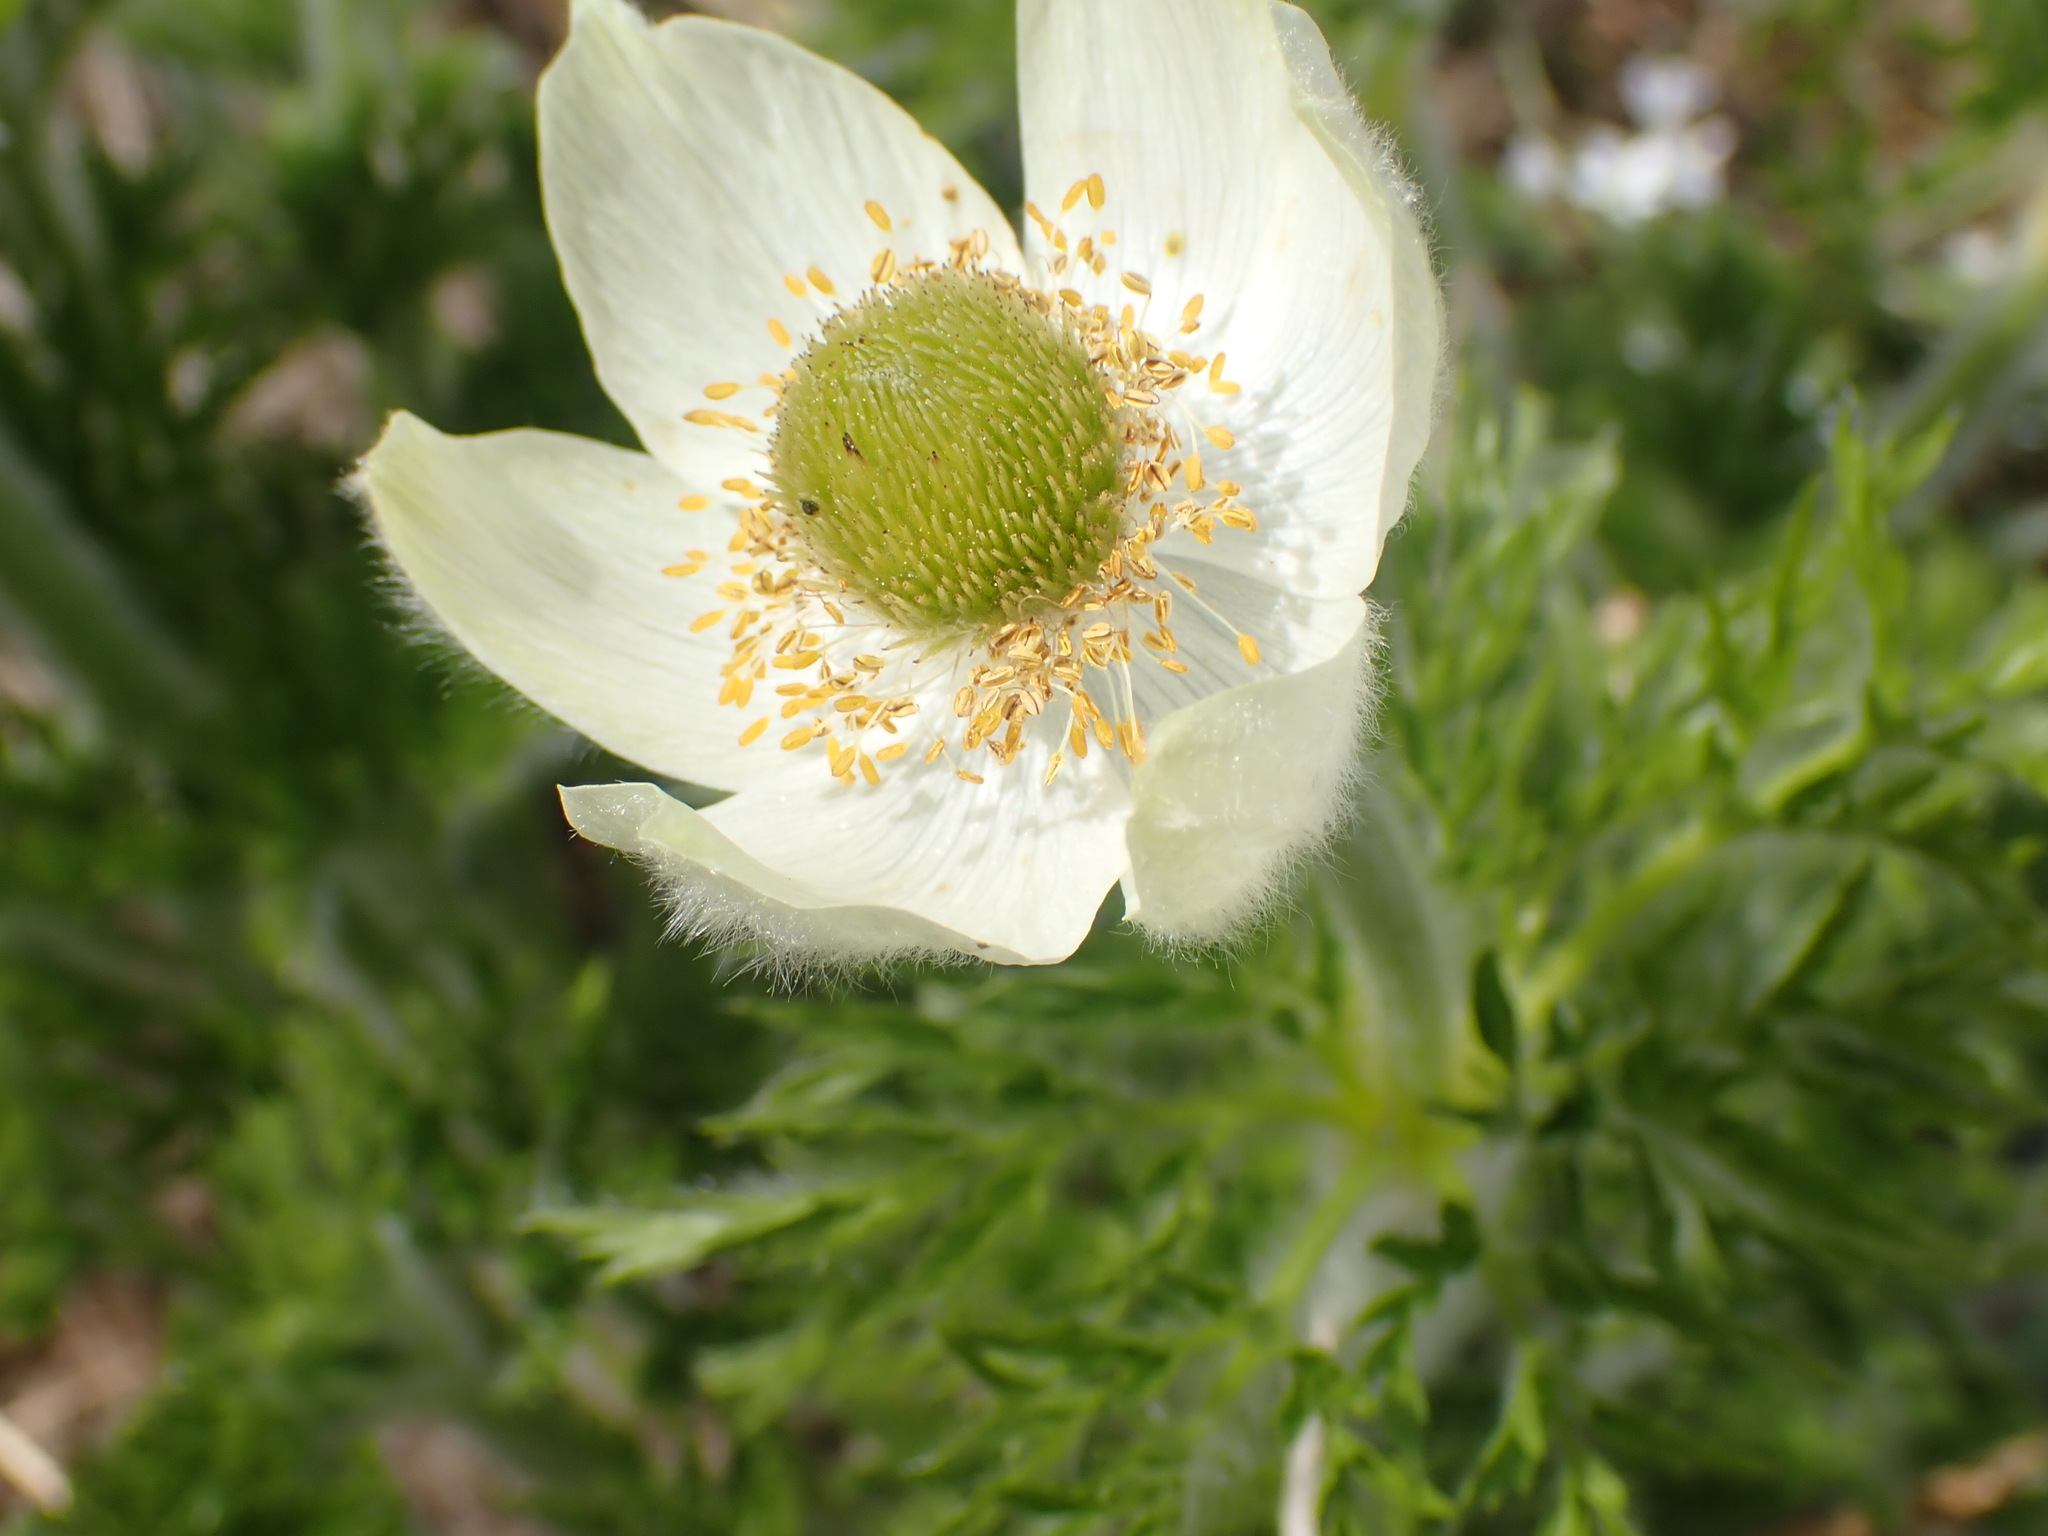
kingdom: Plantae
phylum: Tracheophyta
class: Magnoliopsida
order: Ranunculales
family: Ranunculaceae
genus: Pulsatilla
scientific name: Pulsatilla occidentalis
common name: Mountain pasqueflower
